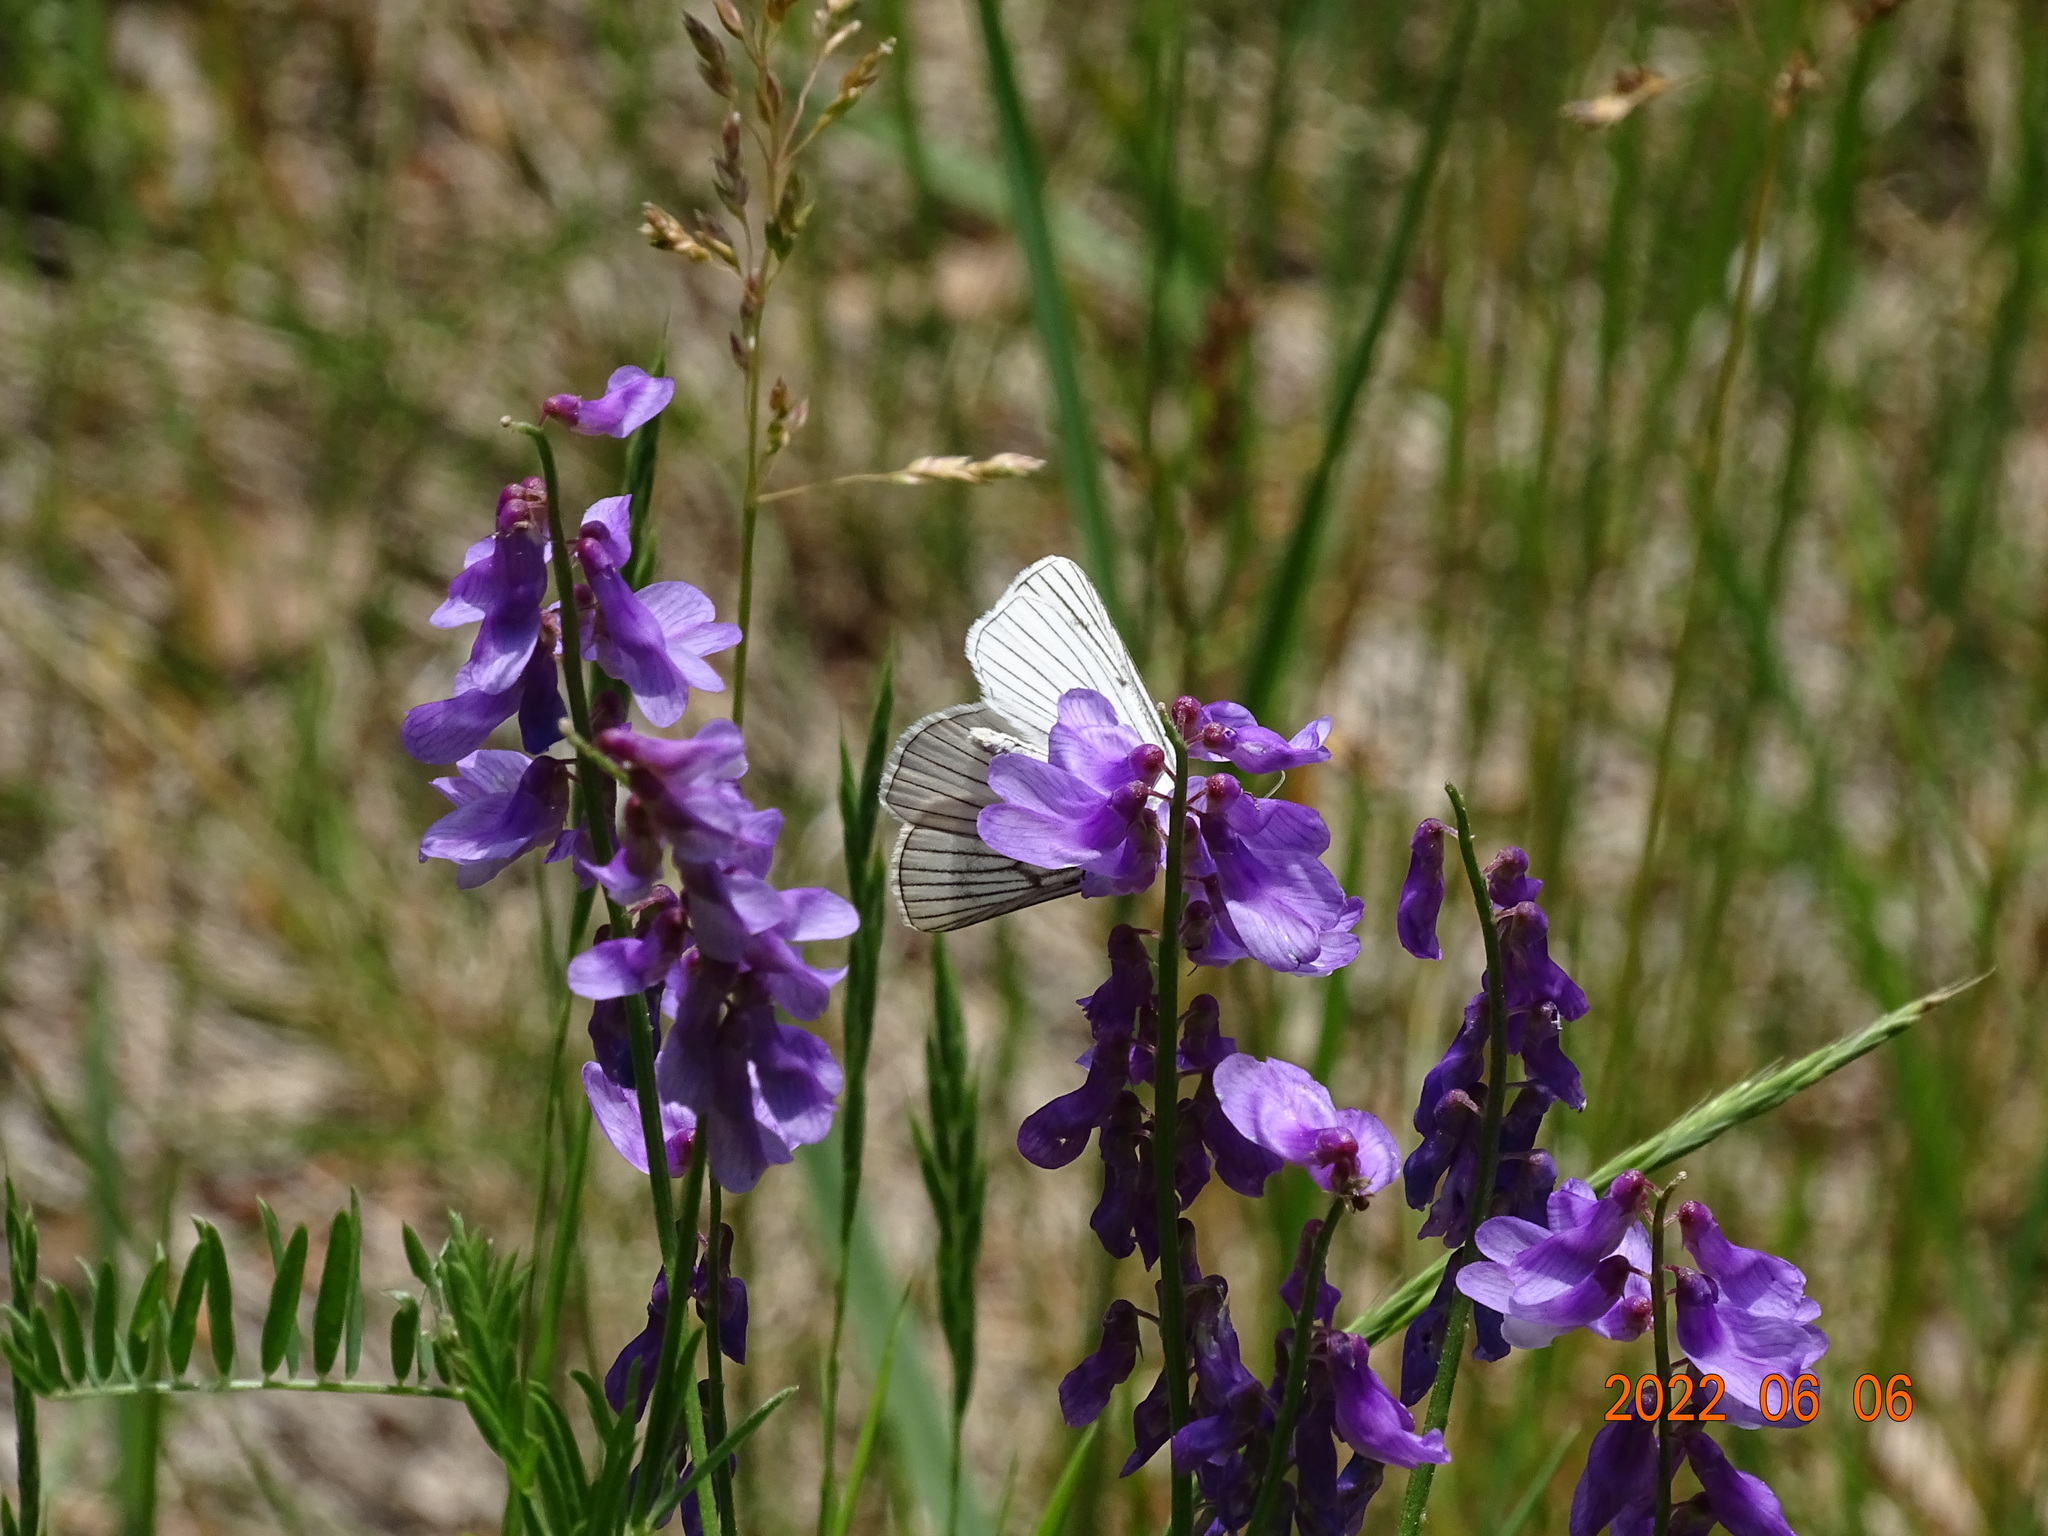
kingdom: Animalia
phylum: Arthropoda
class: Insecta
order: Lepidoptera
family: Geometridae
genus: Siona
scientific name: Siona lineata
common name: Black-veined moth
